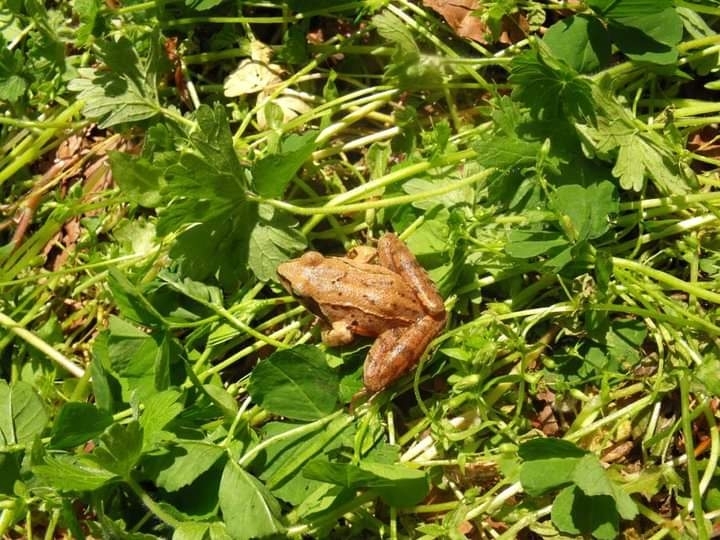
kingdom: Animalia
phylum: Chordata
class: Amphibia
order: Anura
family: Ranidae
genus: Rana
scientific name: Rana dalmatina
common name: Agile frog
